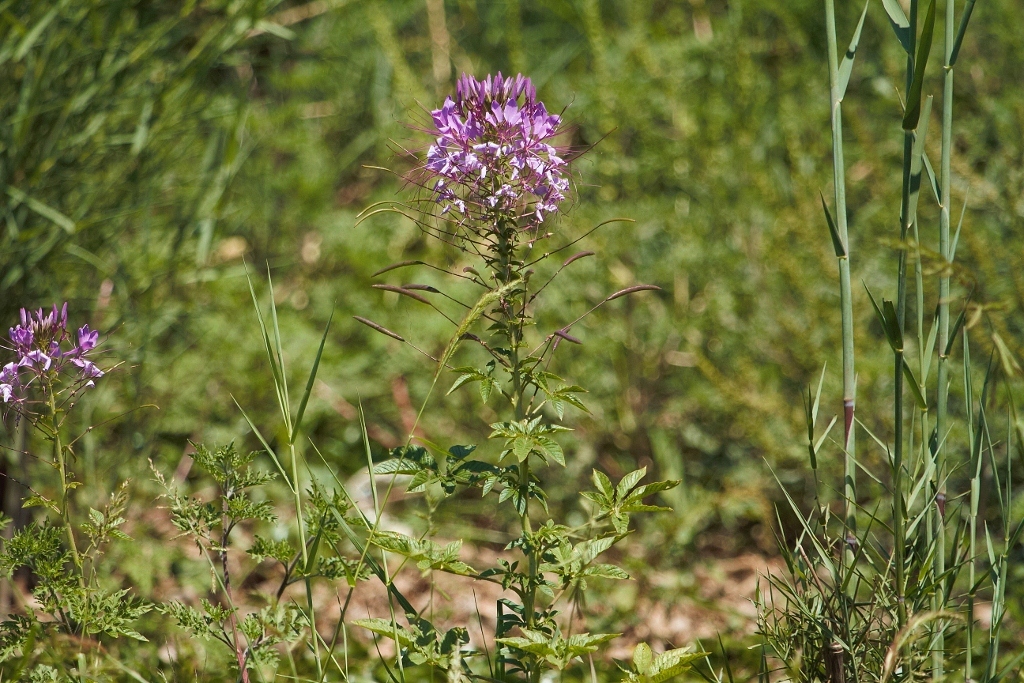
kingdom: Plantae
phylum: Tracheophyta
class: Magnoliopsida
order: Brassicales
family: Cleomaceae
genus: Tarenaya
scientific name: Tarenaya houtteana
